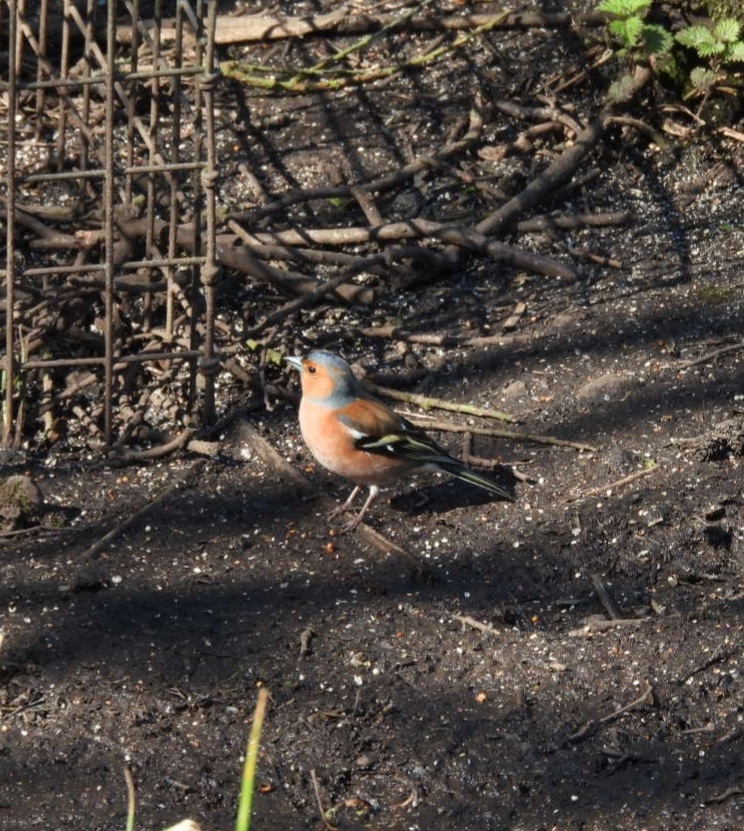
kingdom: Animalia
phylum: Chordata
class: Aves
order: Passeriformes
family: Fringillidae
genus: Fringilla
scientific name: Fringilla coelebs
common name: Common chaffinch
